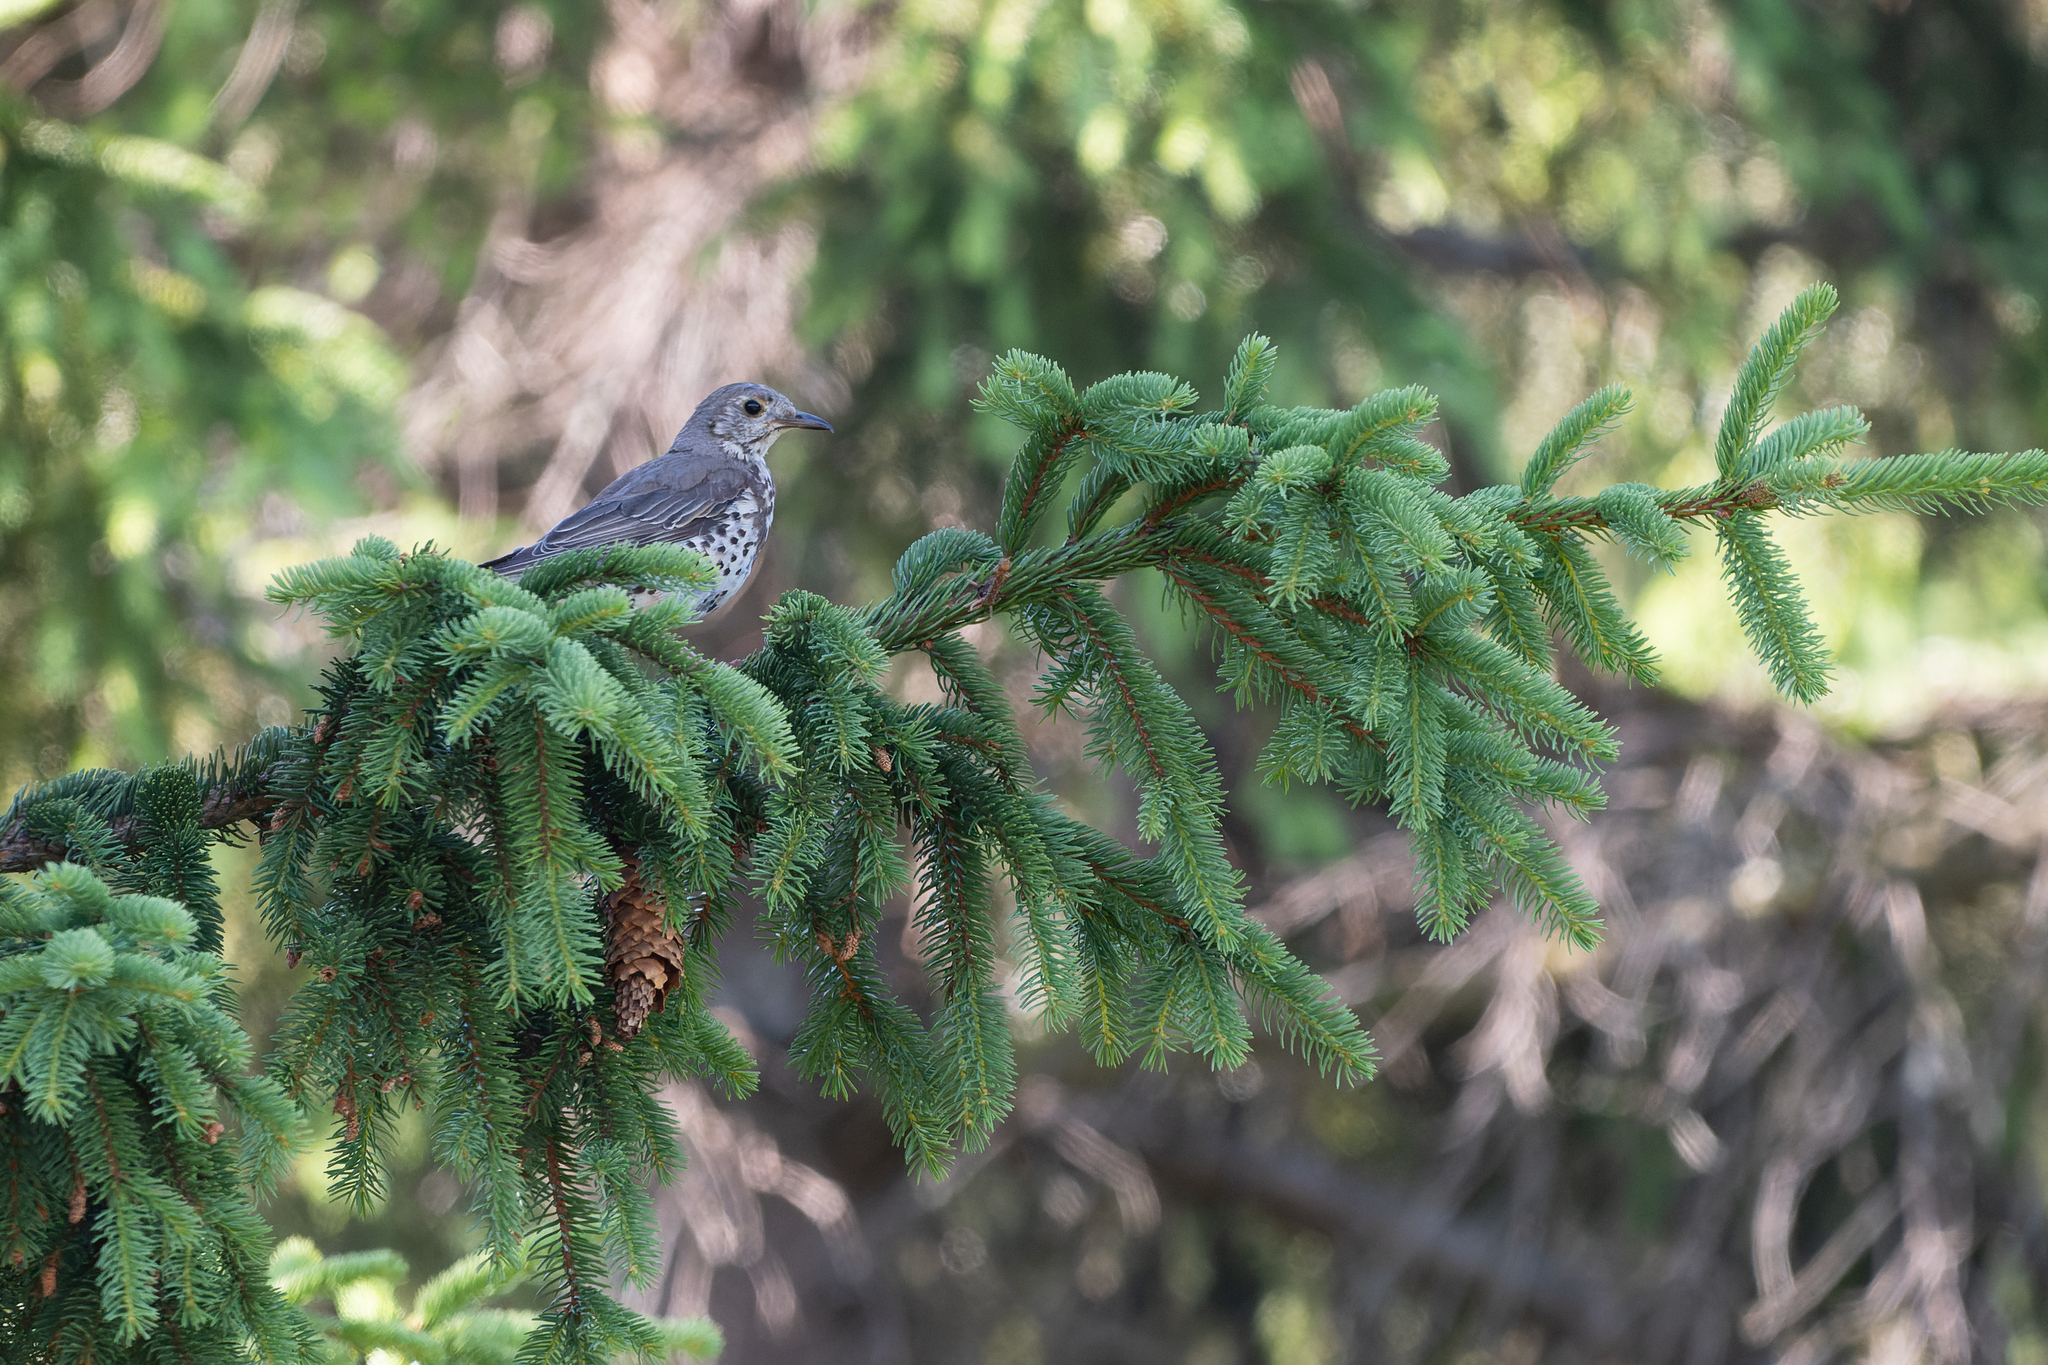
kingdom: Animalia
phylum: Chordata
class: Aves
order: Passeriformes
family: Turdidae
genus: Turdus
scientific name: Turdus viscivorus
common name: Mistle thrush
